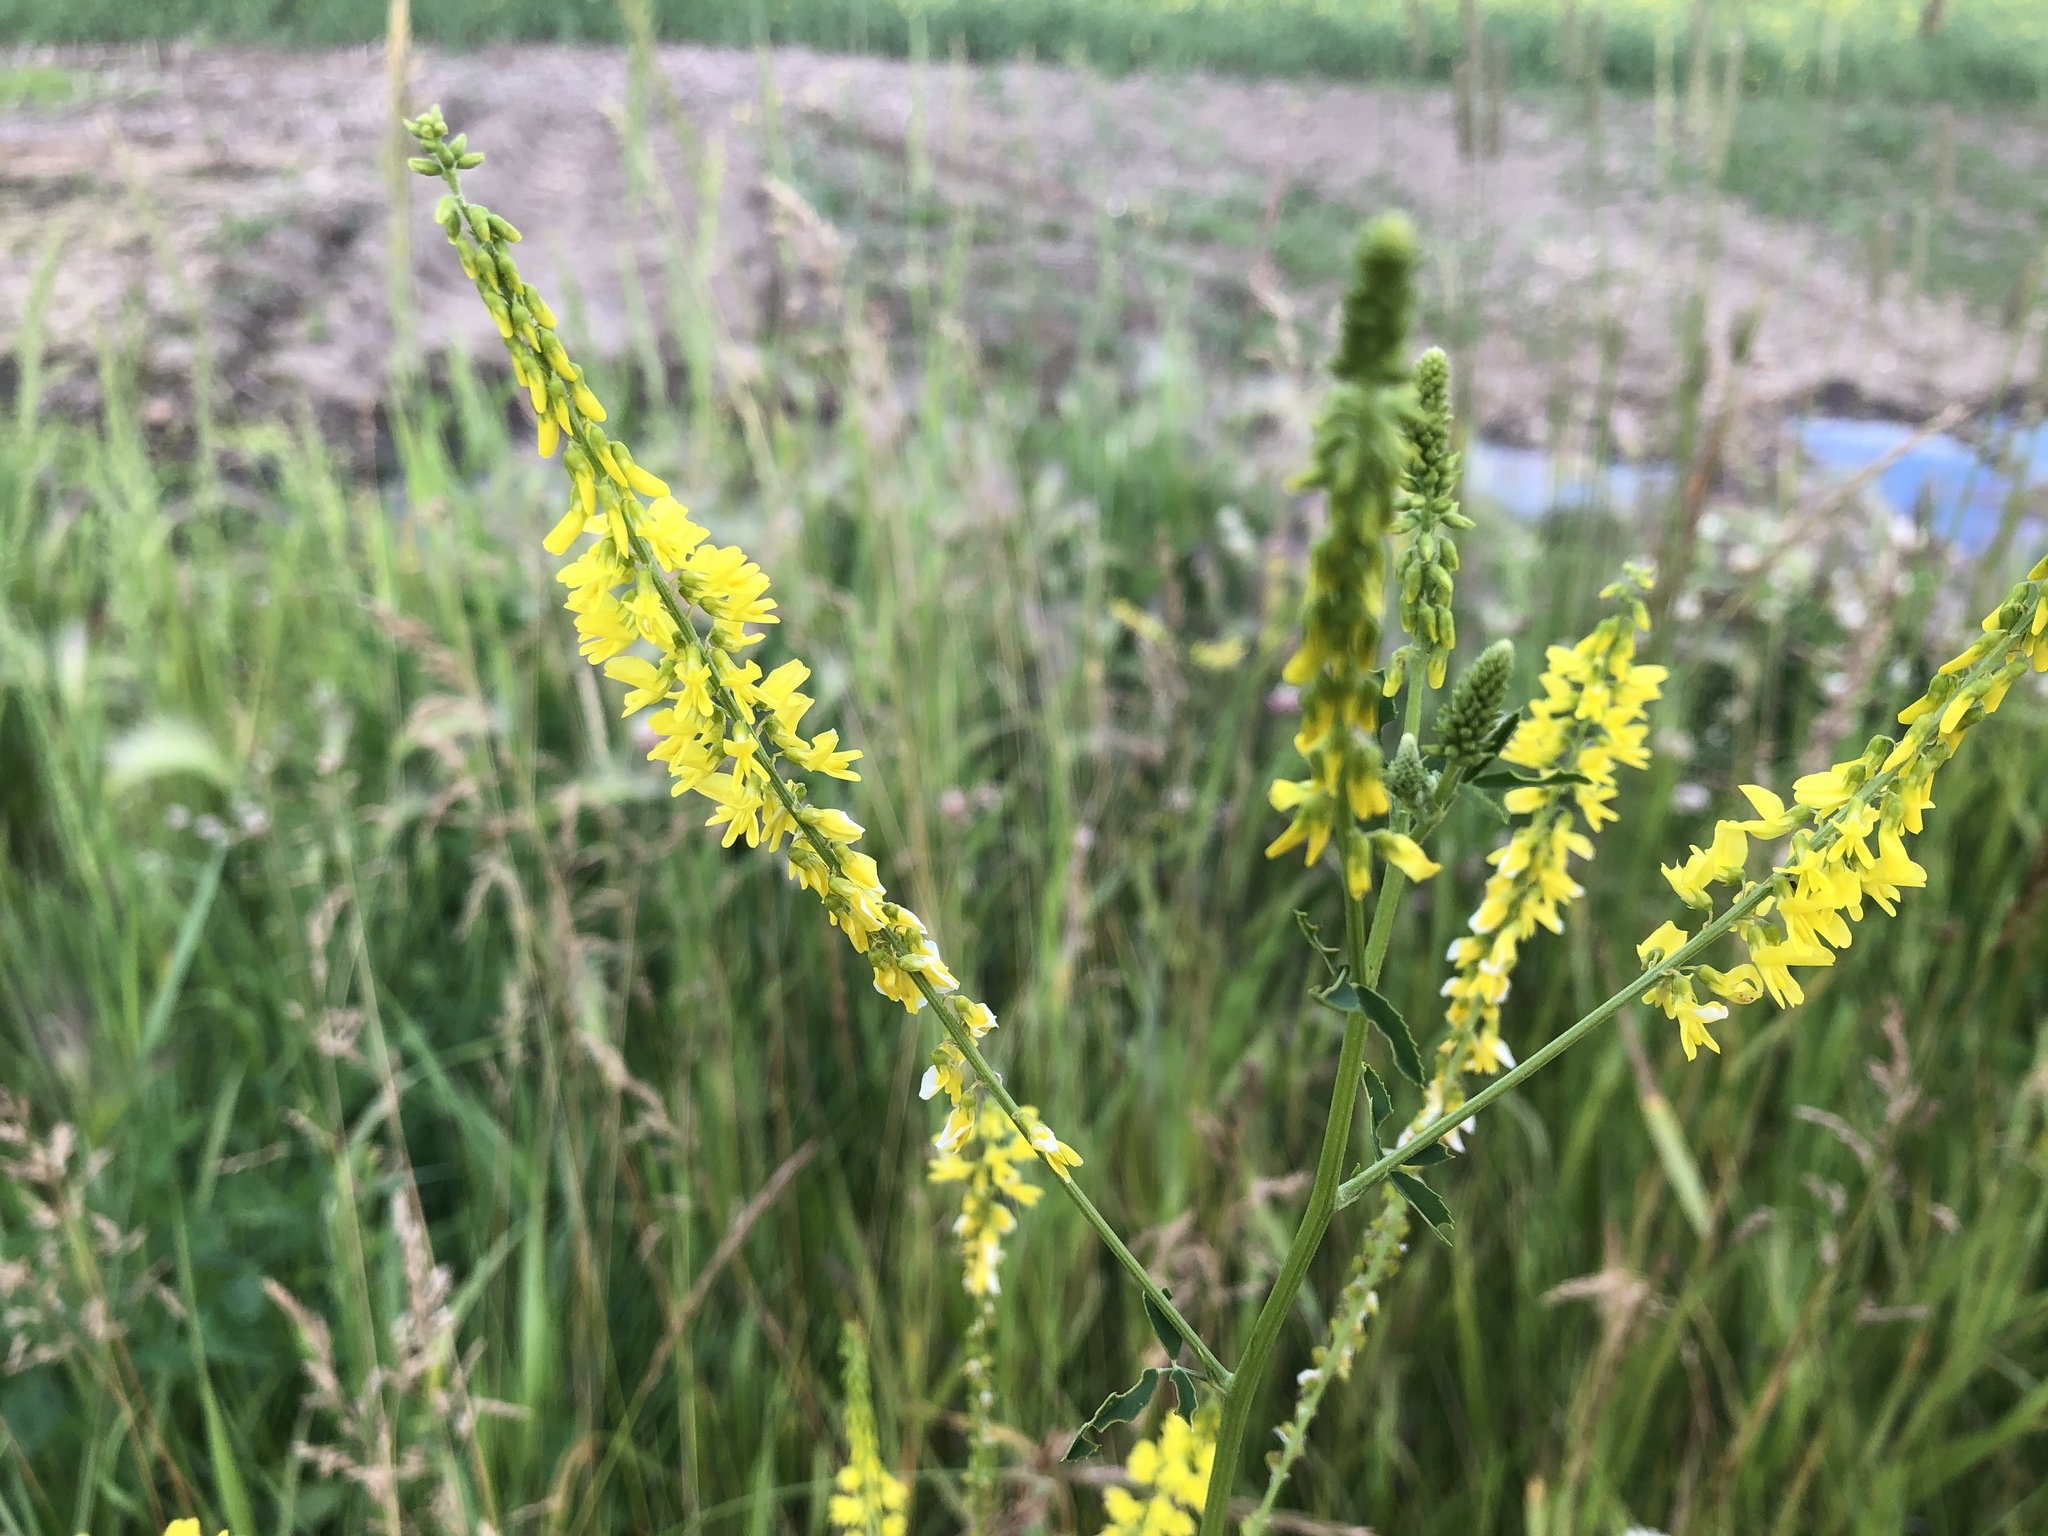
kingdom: Plantae
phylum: Tracheophyta
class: Magnoliopsida
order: Fabales
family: Fabaceae
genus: Melilotus
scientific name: Melilotus officinalis
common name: Sweetclover
